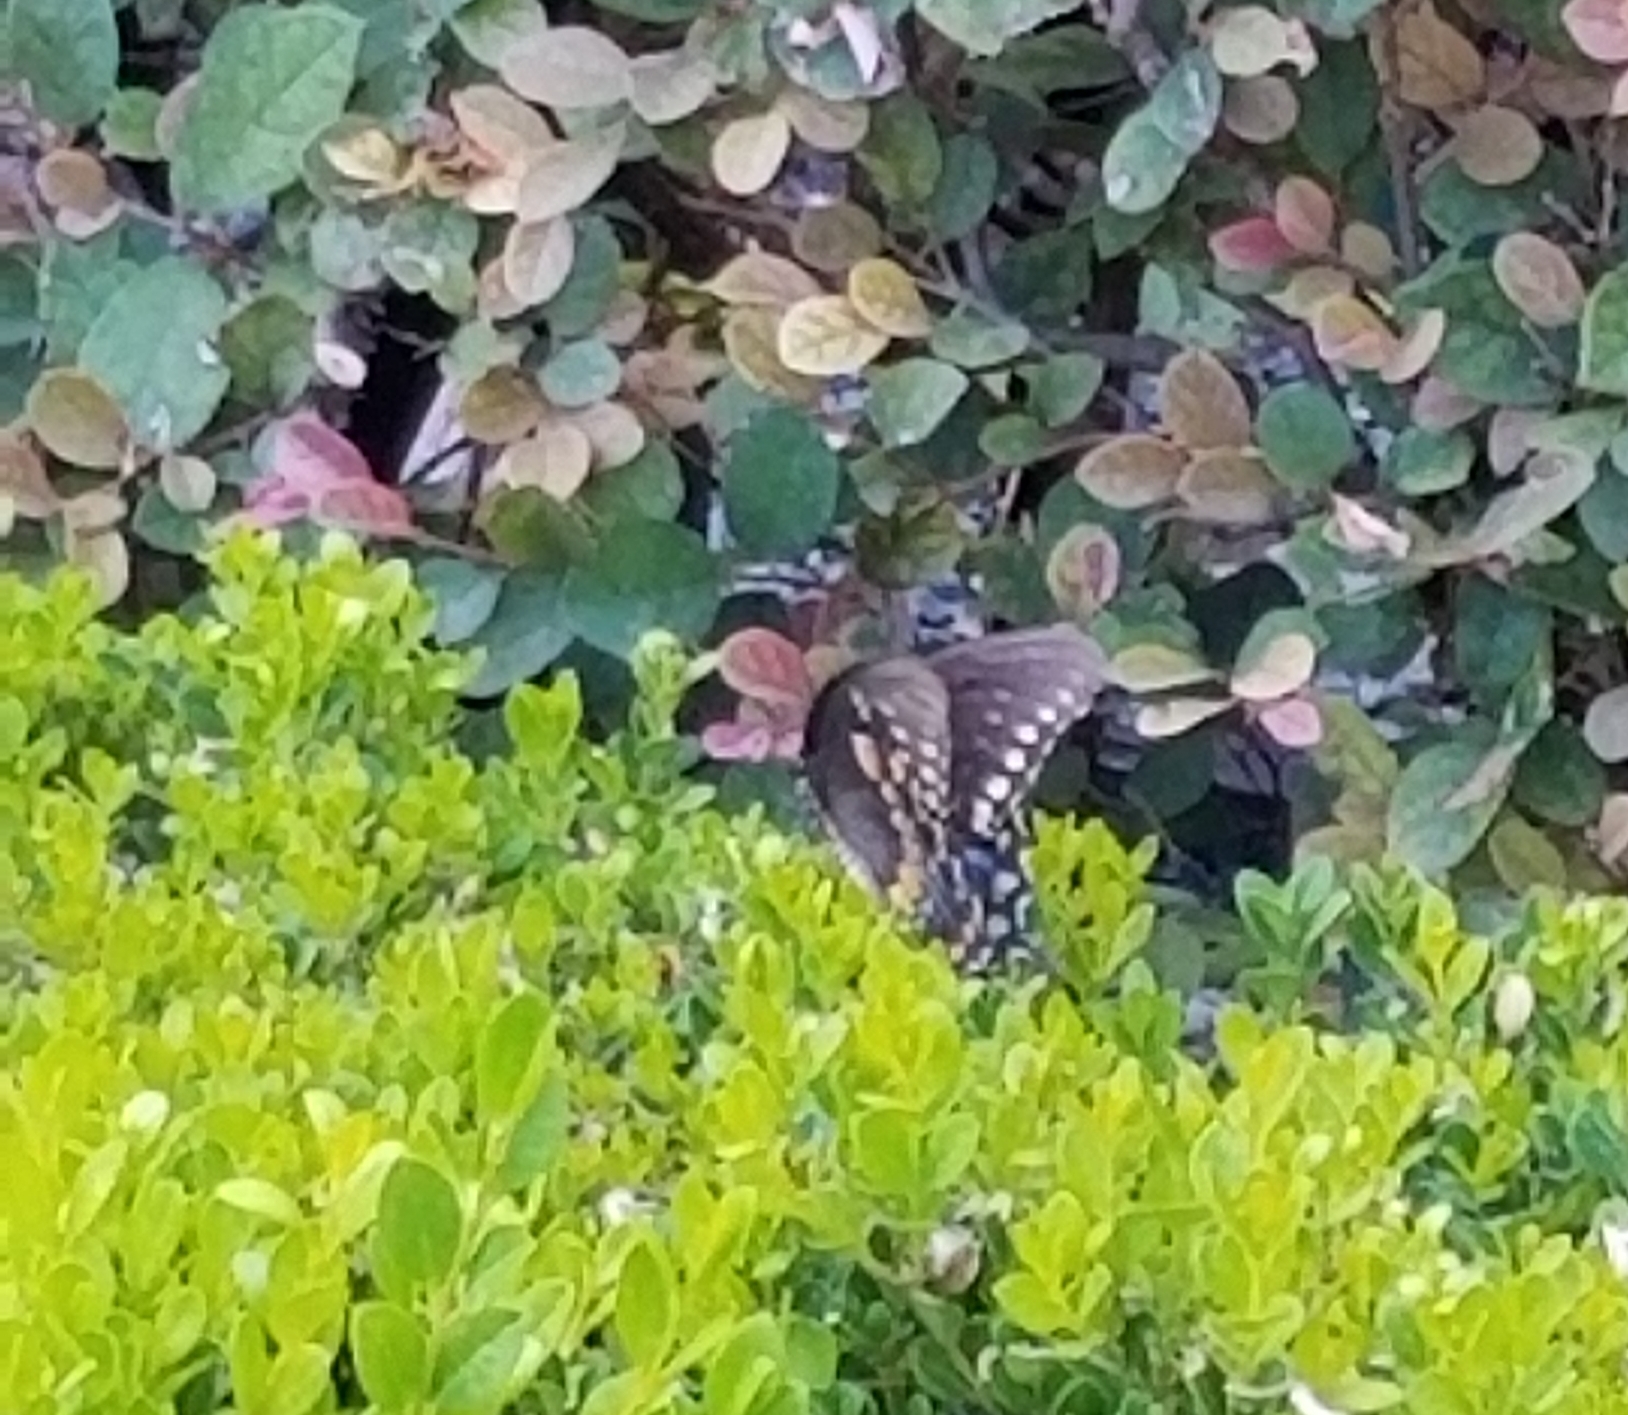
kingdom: Animalia
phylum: Arthropoda
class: Insecta
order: Lepidoptera
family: Papilionidae
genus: Papilio
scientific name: Papilio polyxenes
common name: Black swallowtail
